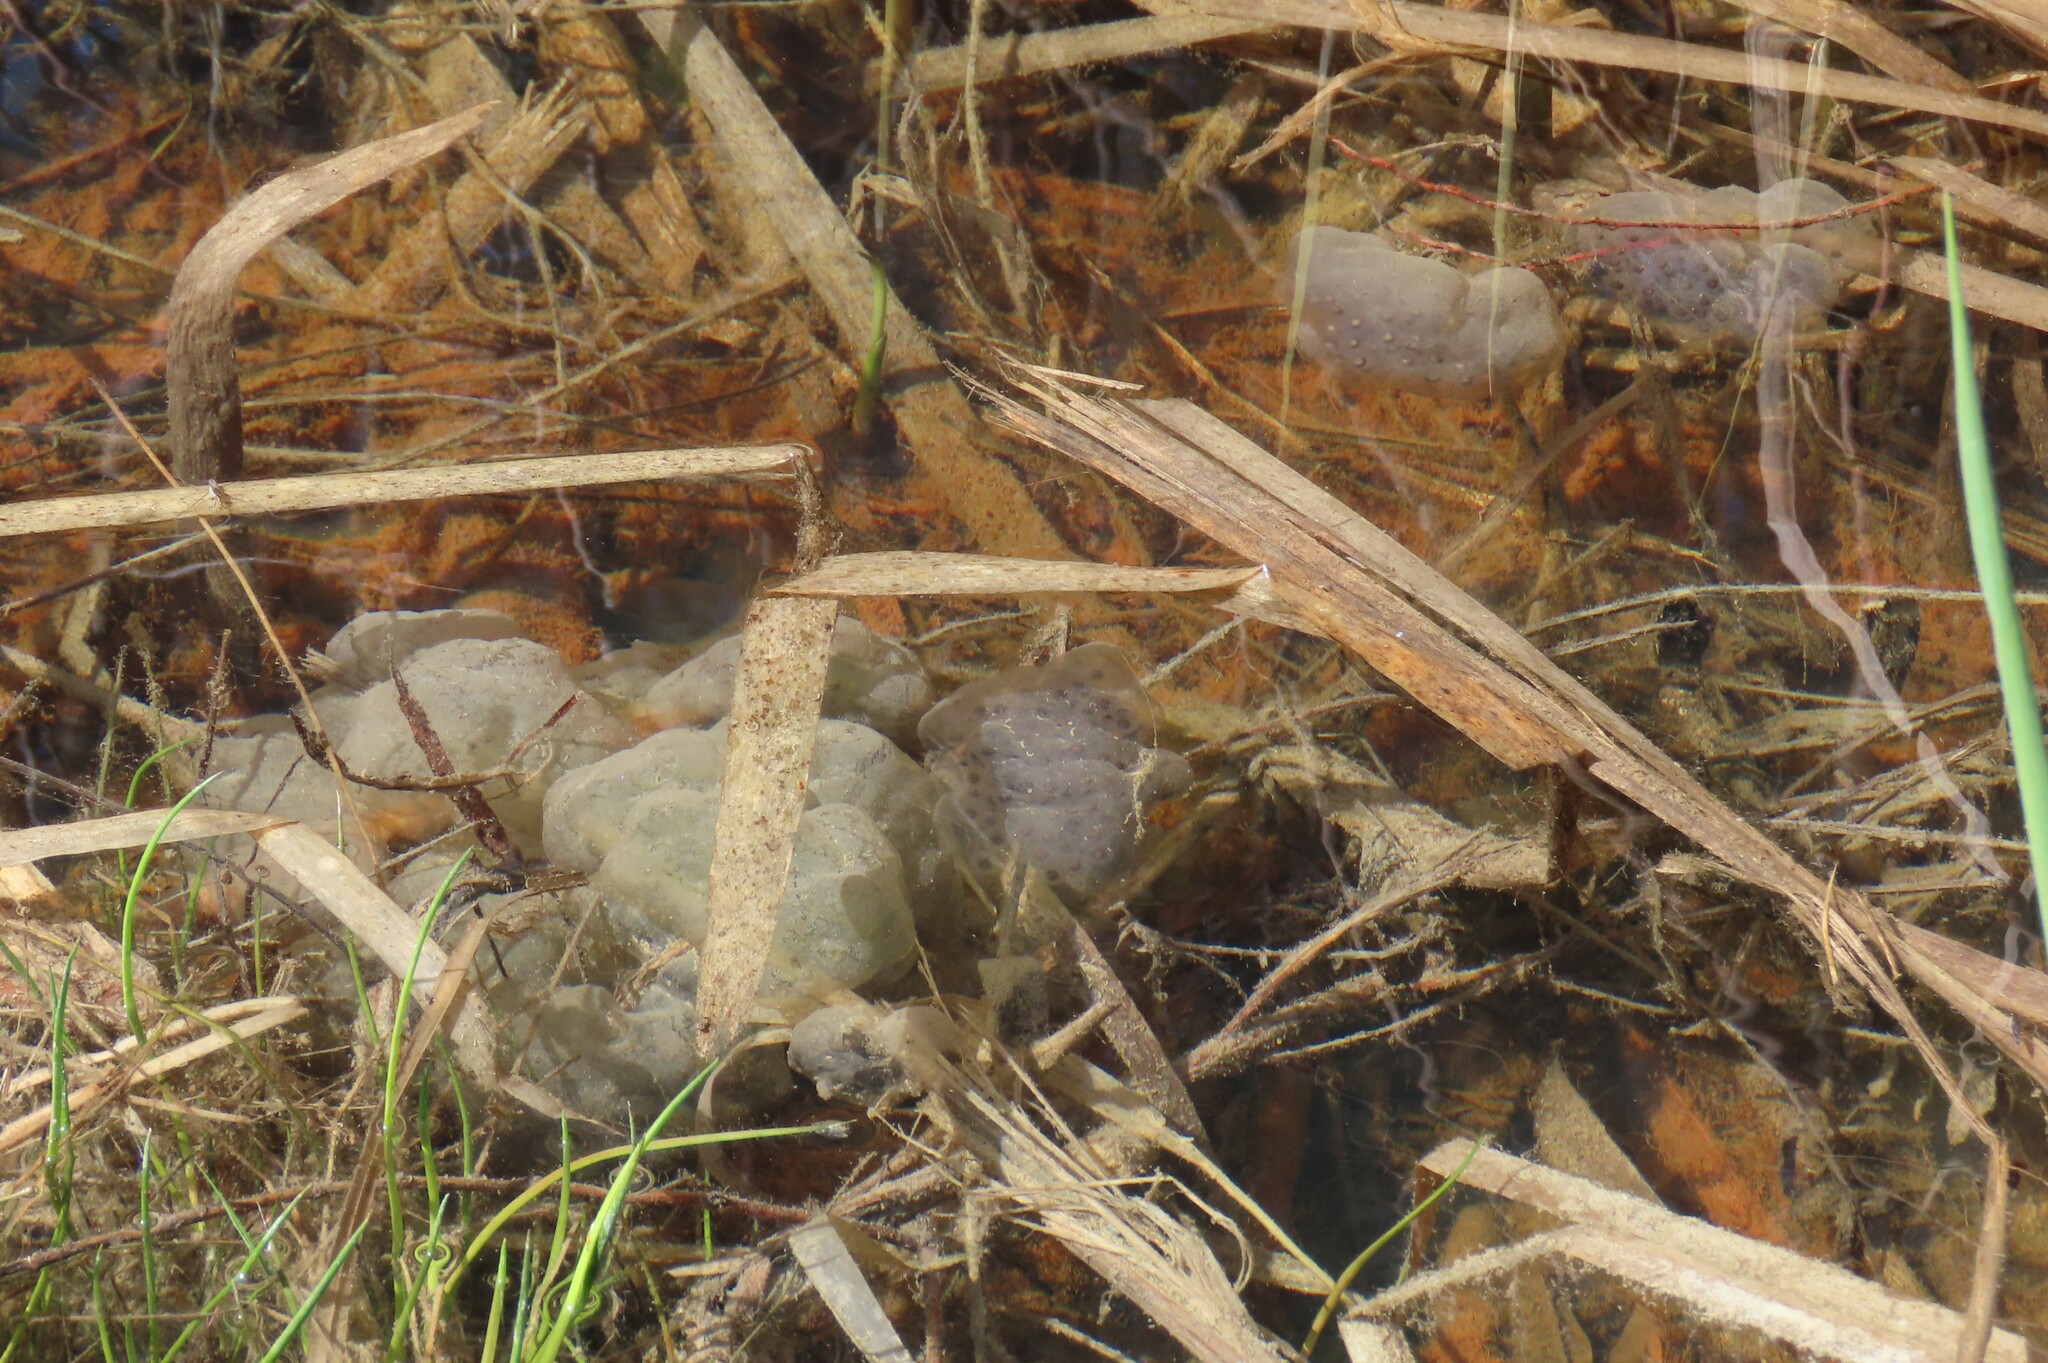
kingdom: Animalia
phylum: Chordata
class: Amphibia
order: Caudata
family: Ambystomatidae
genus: Ambystoma
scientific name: Ambystoma maculatum
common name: Spotted salamander
